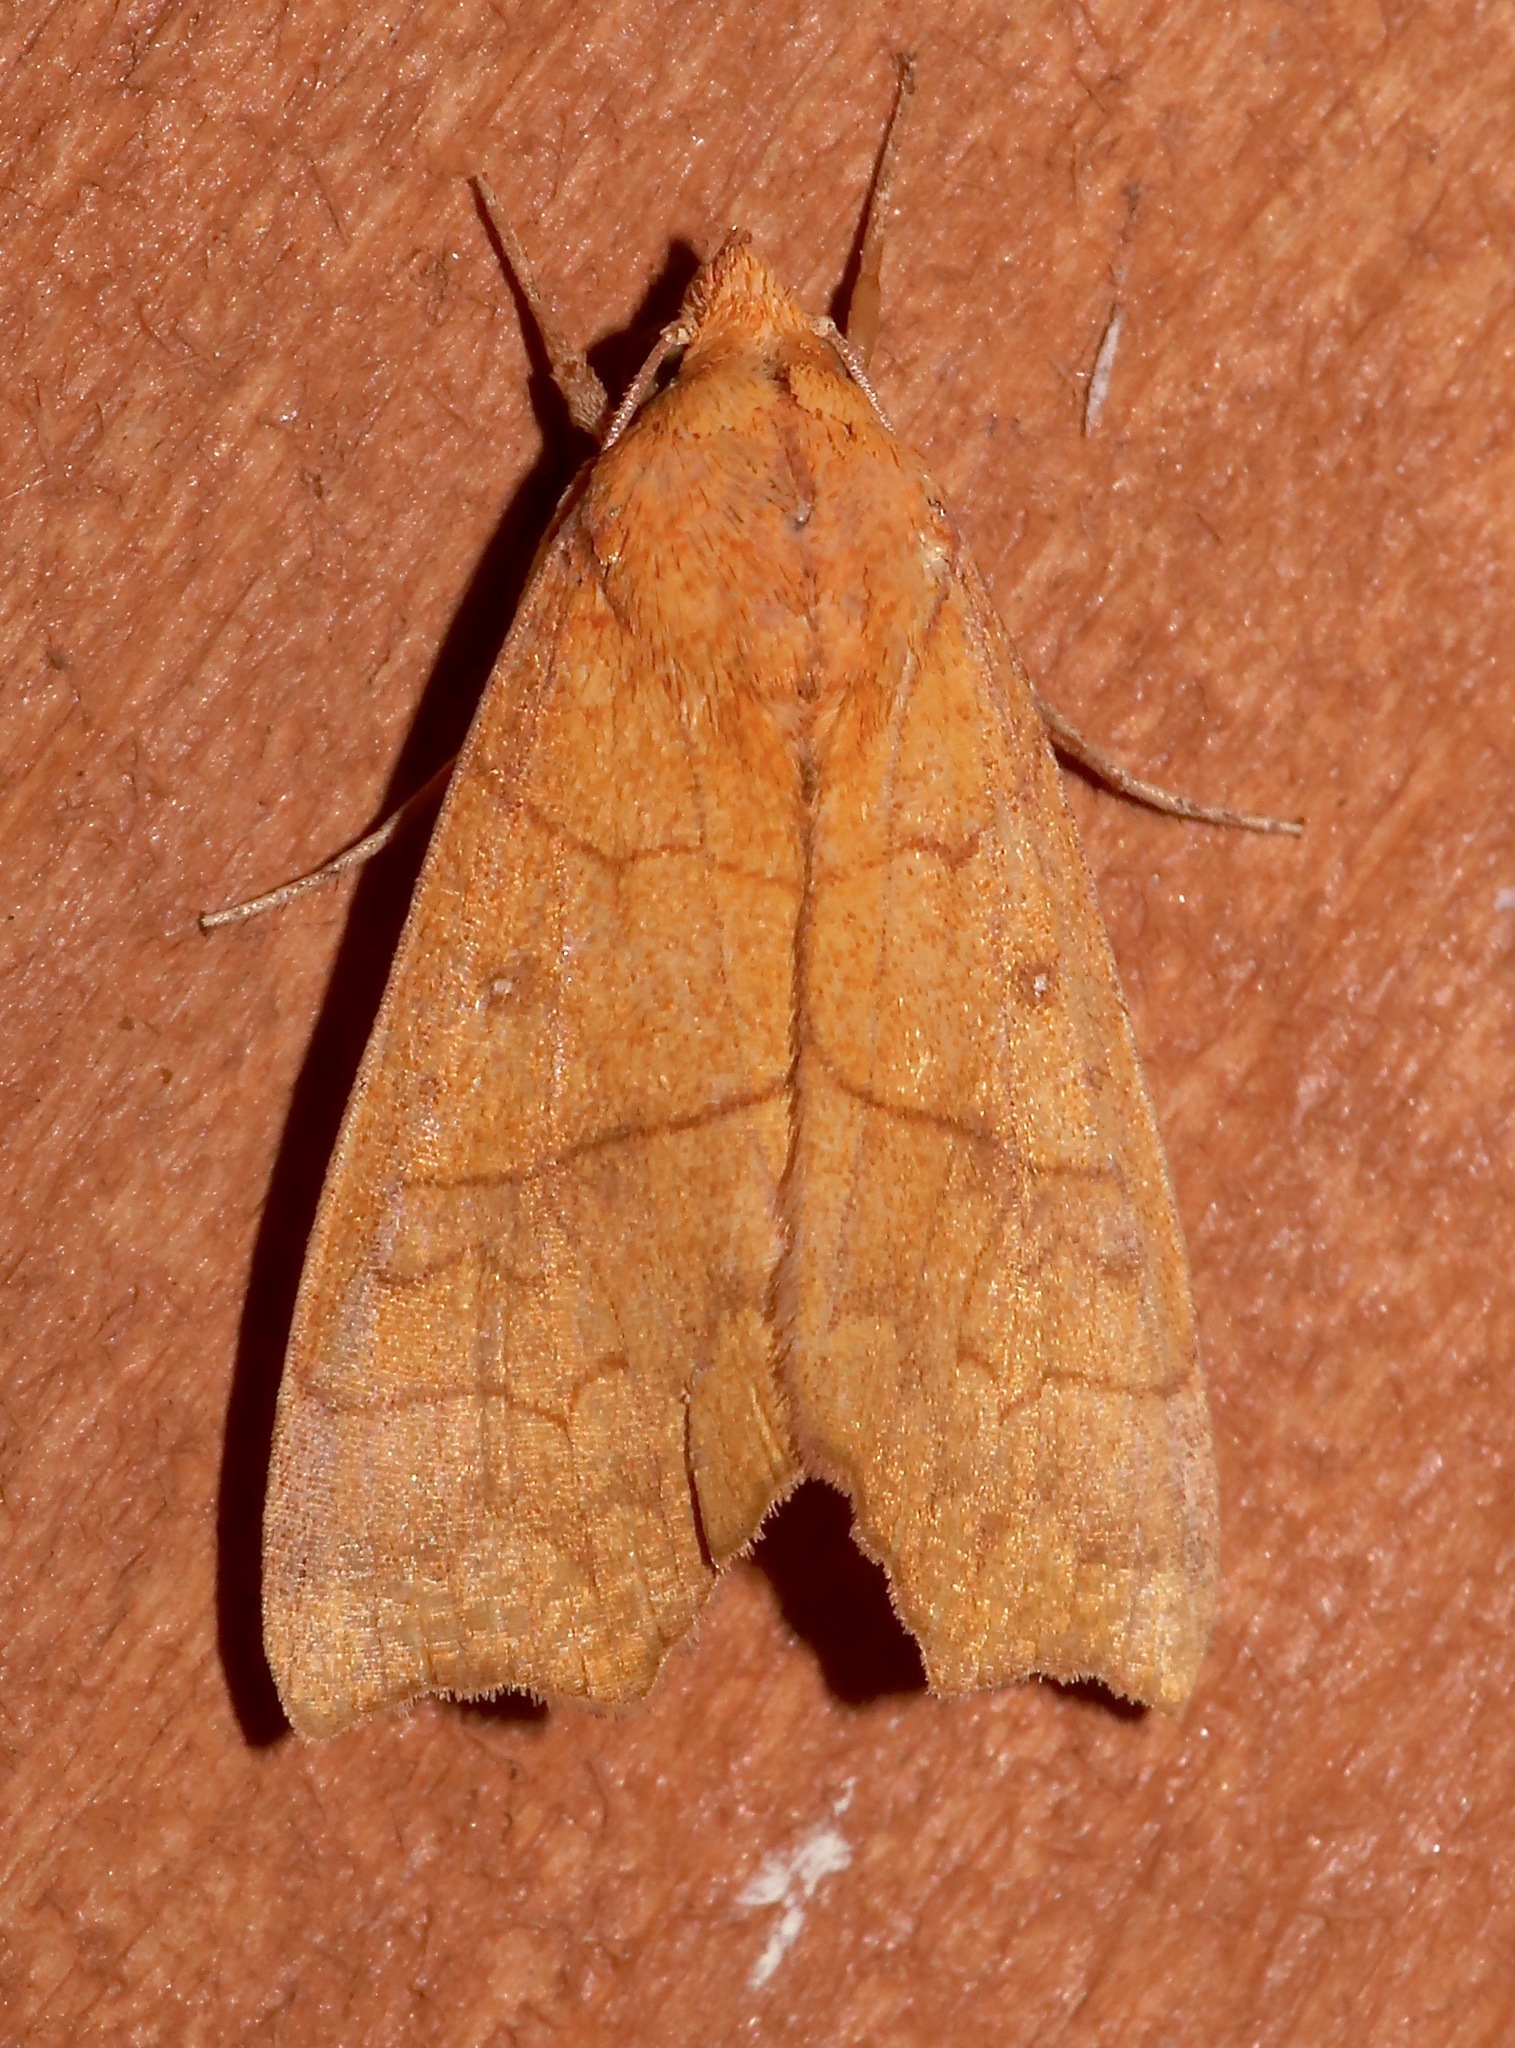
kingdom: Animalia
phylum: Arthropoda
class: Insecta
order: Lepidoptera
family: Erebidae
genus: Anomis
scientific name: Anomis erosa
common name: Yellow scallop moth
